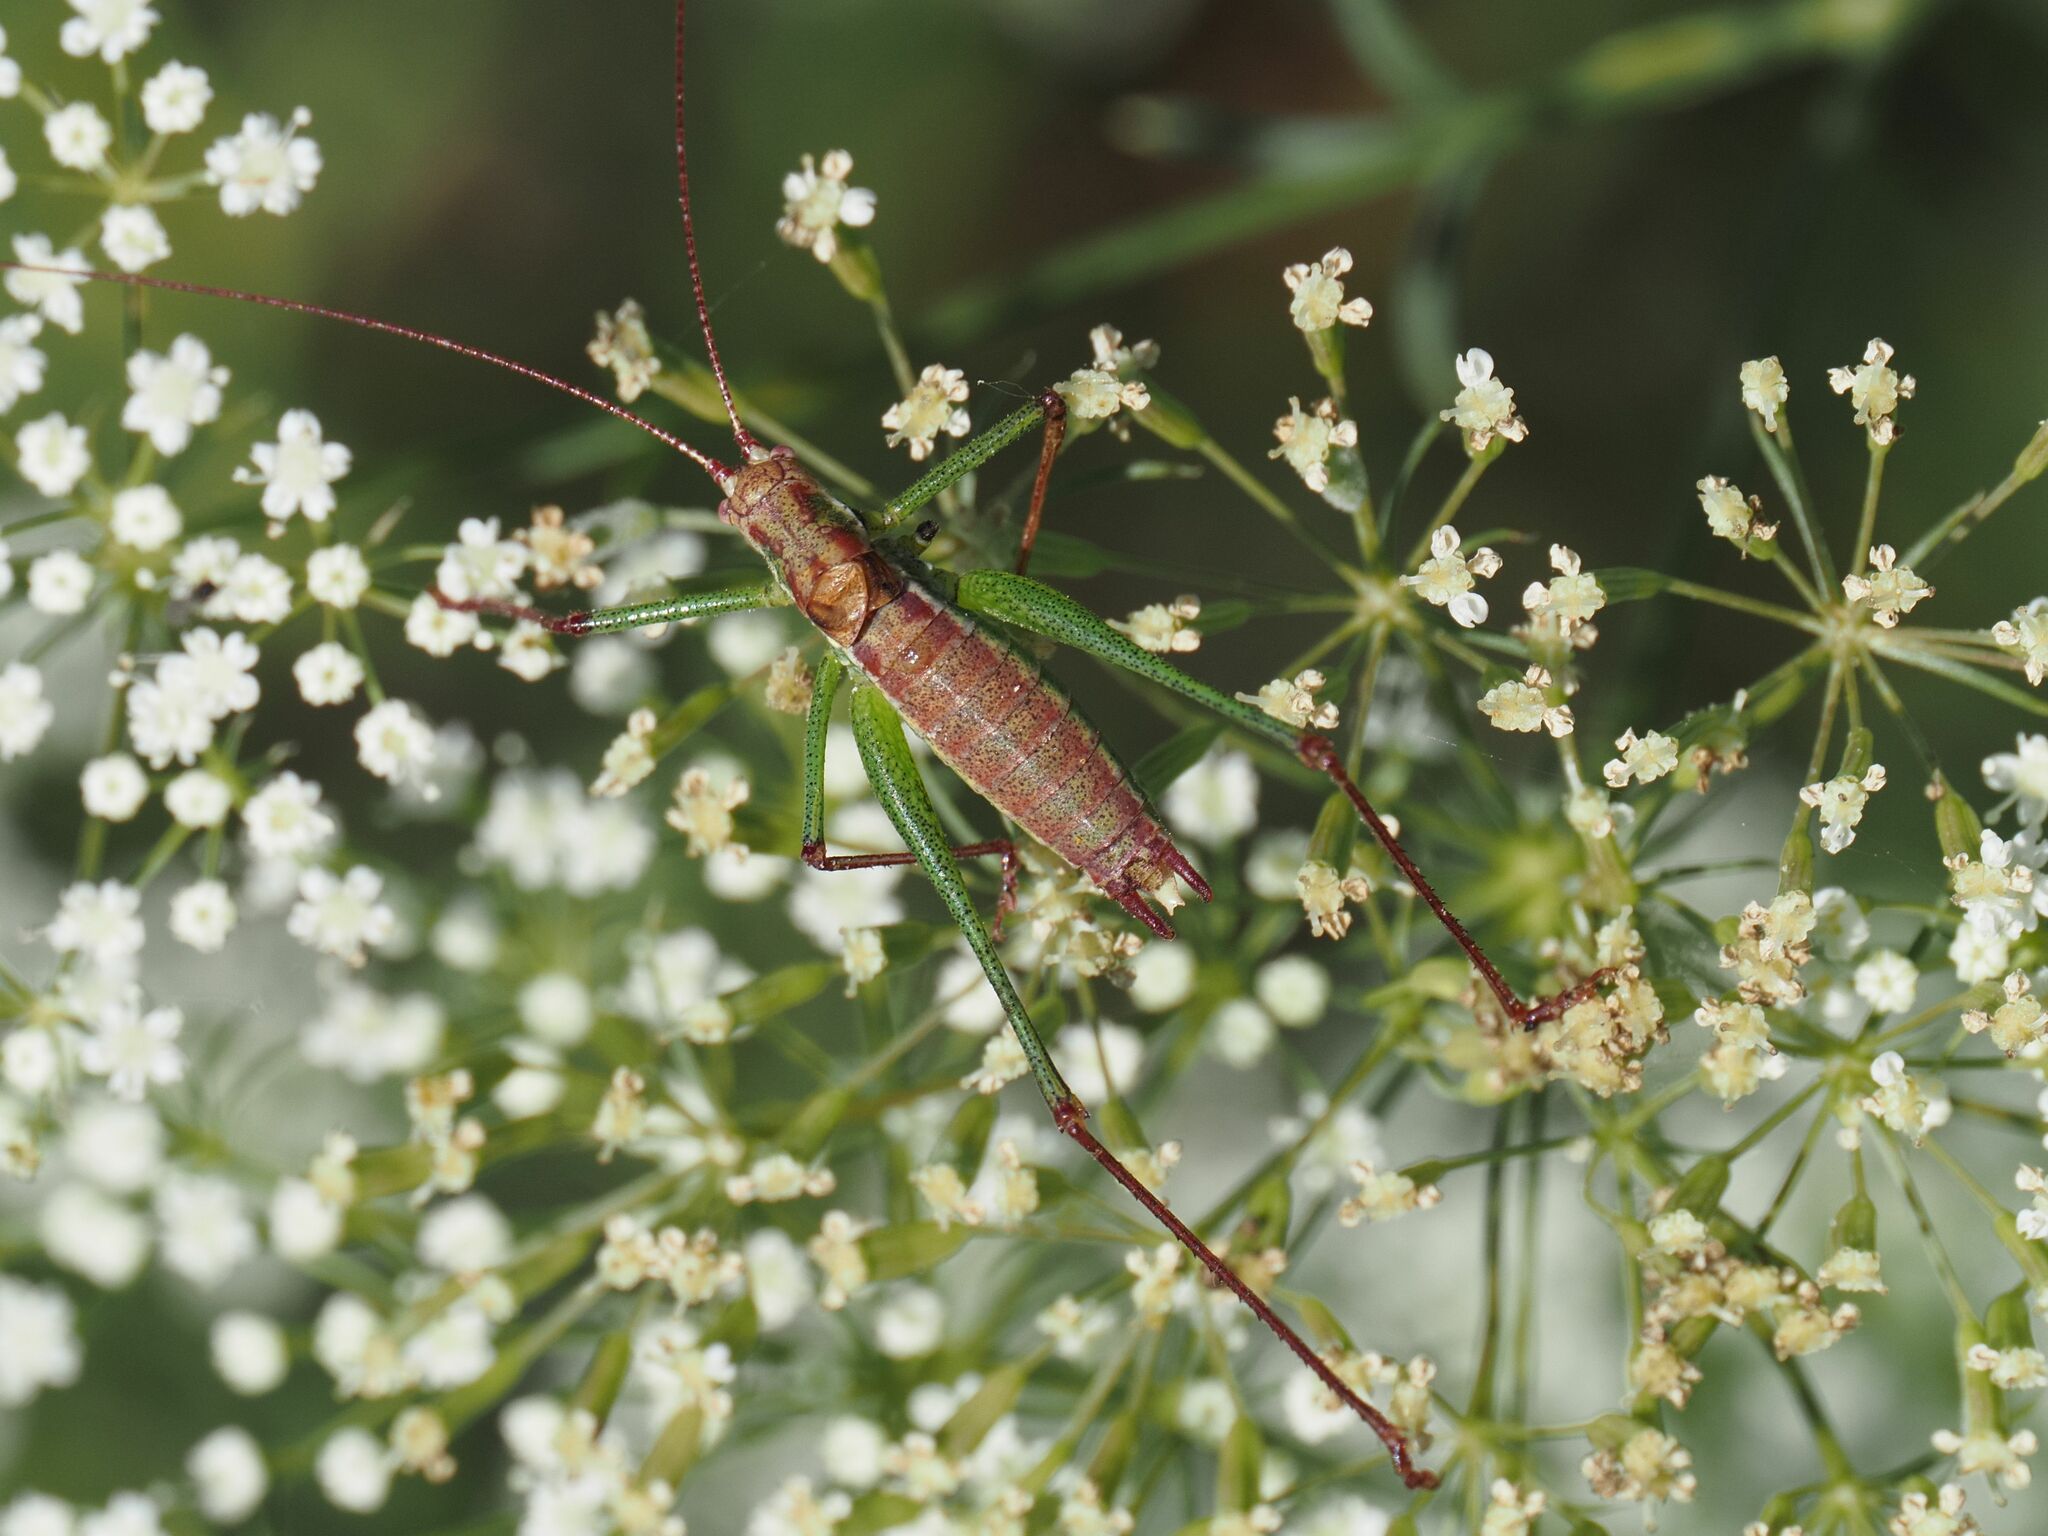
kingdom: Animalia
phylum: Arthropoda
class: Insecta
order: Orthoptera
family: Tettigoniidae
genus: Leptophyes
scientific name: Leptophyes albovittata
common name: Striped bush-cricket
